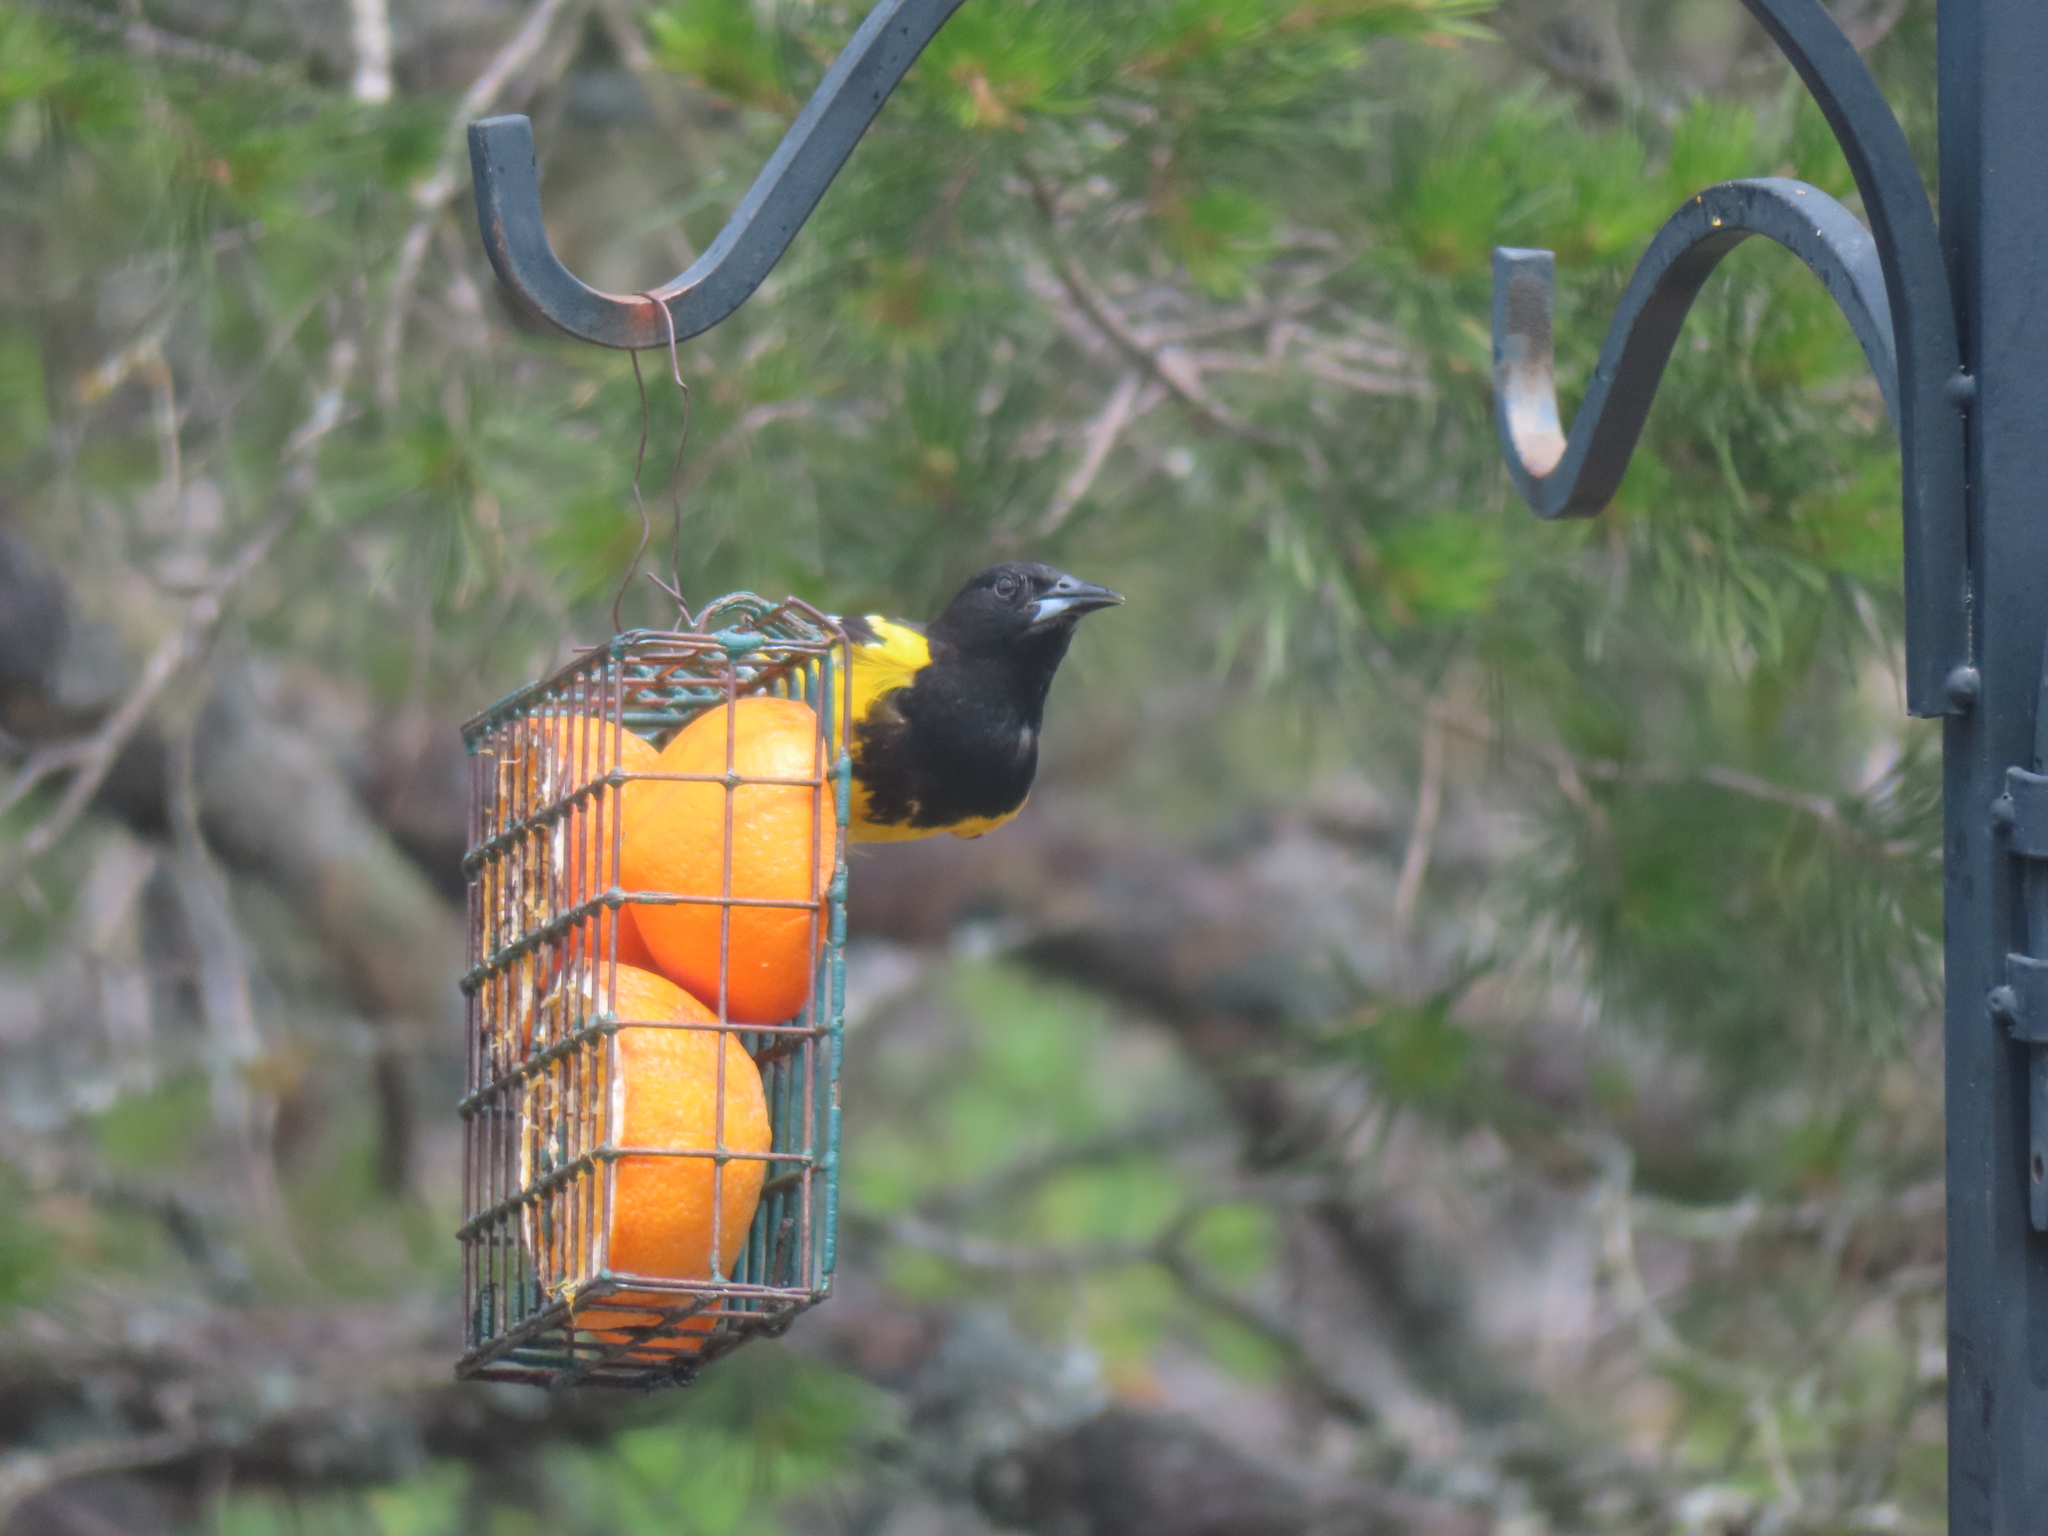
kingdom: Animalia
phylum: Chordata
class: Aves
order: Passeriformes
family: Icteridae
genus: Icterus
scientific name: Icterus parisorum
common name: Scott's oriole
